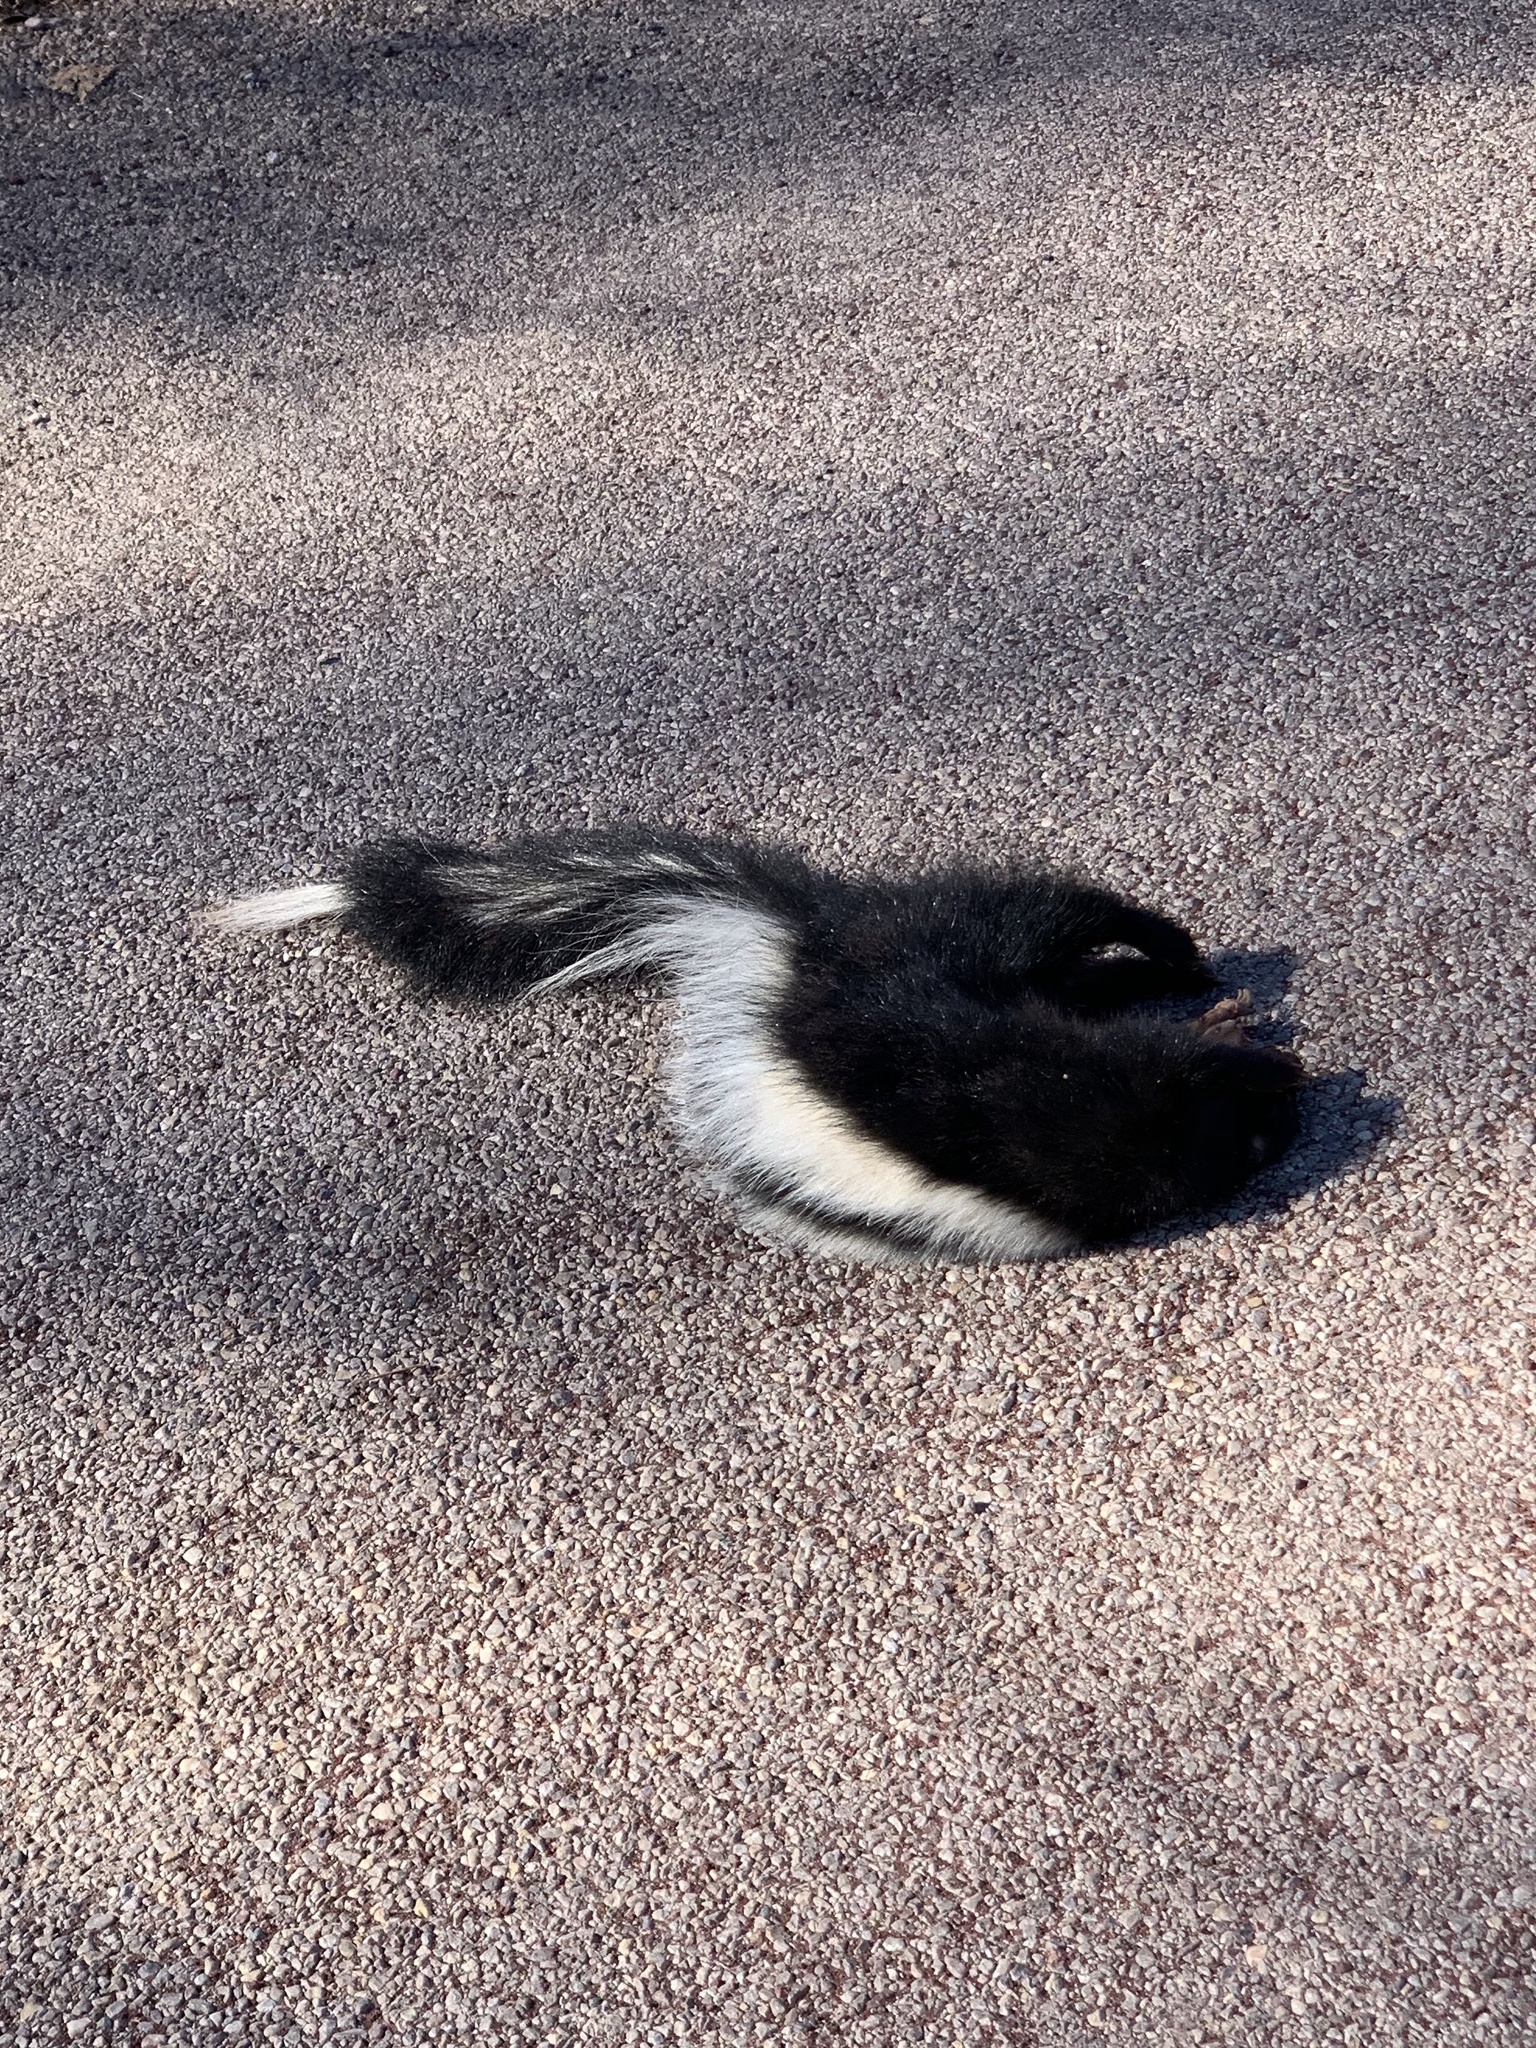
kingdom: Animalia
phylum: Chordata
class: Mammalia
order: Carnivora
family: Mephitidae
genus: Mephitis
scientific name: Mephitis mephitis
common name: Striped skunk
